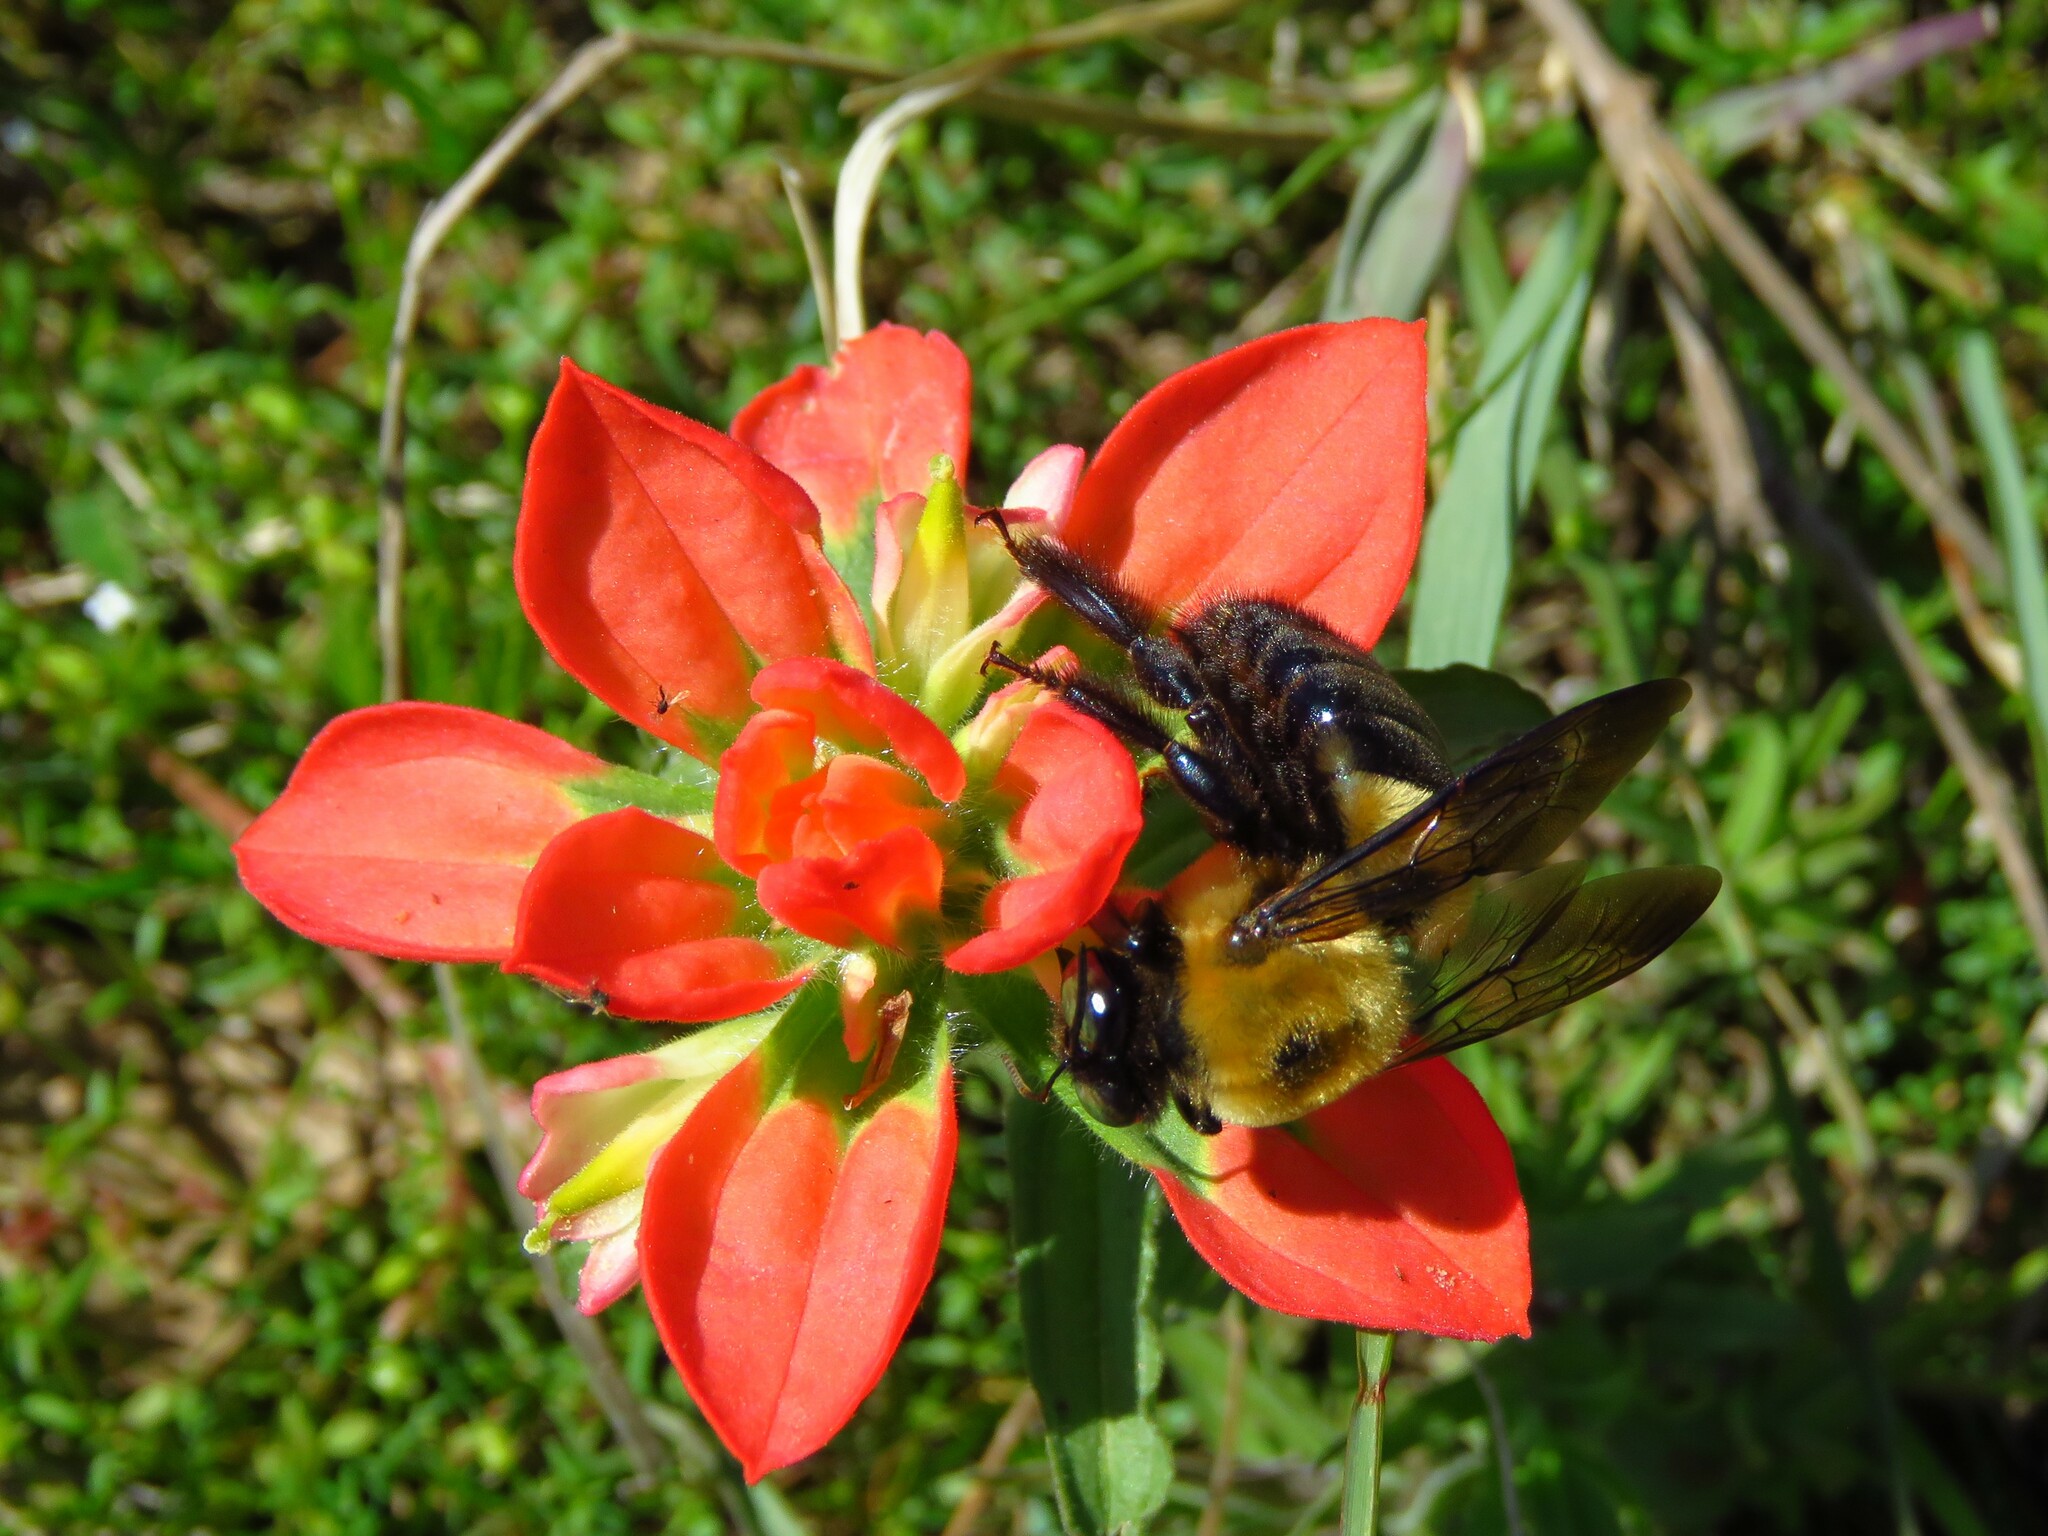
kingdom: Animalia
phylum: Arthropoda
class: Insecta
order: Hymenoptera
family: Apidae
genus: Xylocopa
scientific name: Xylocopa virginica
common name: Carpenter bee
